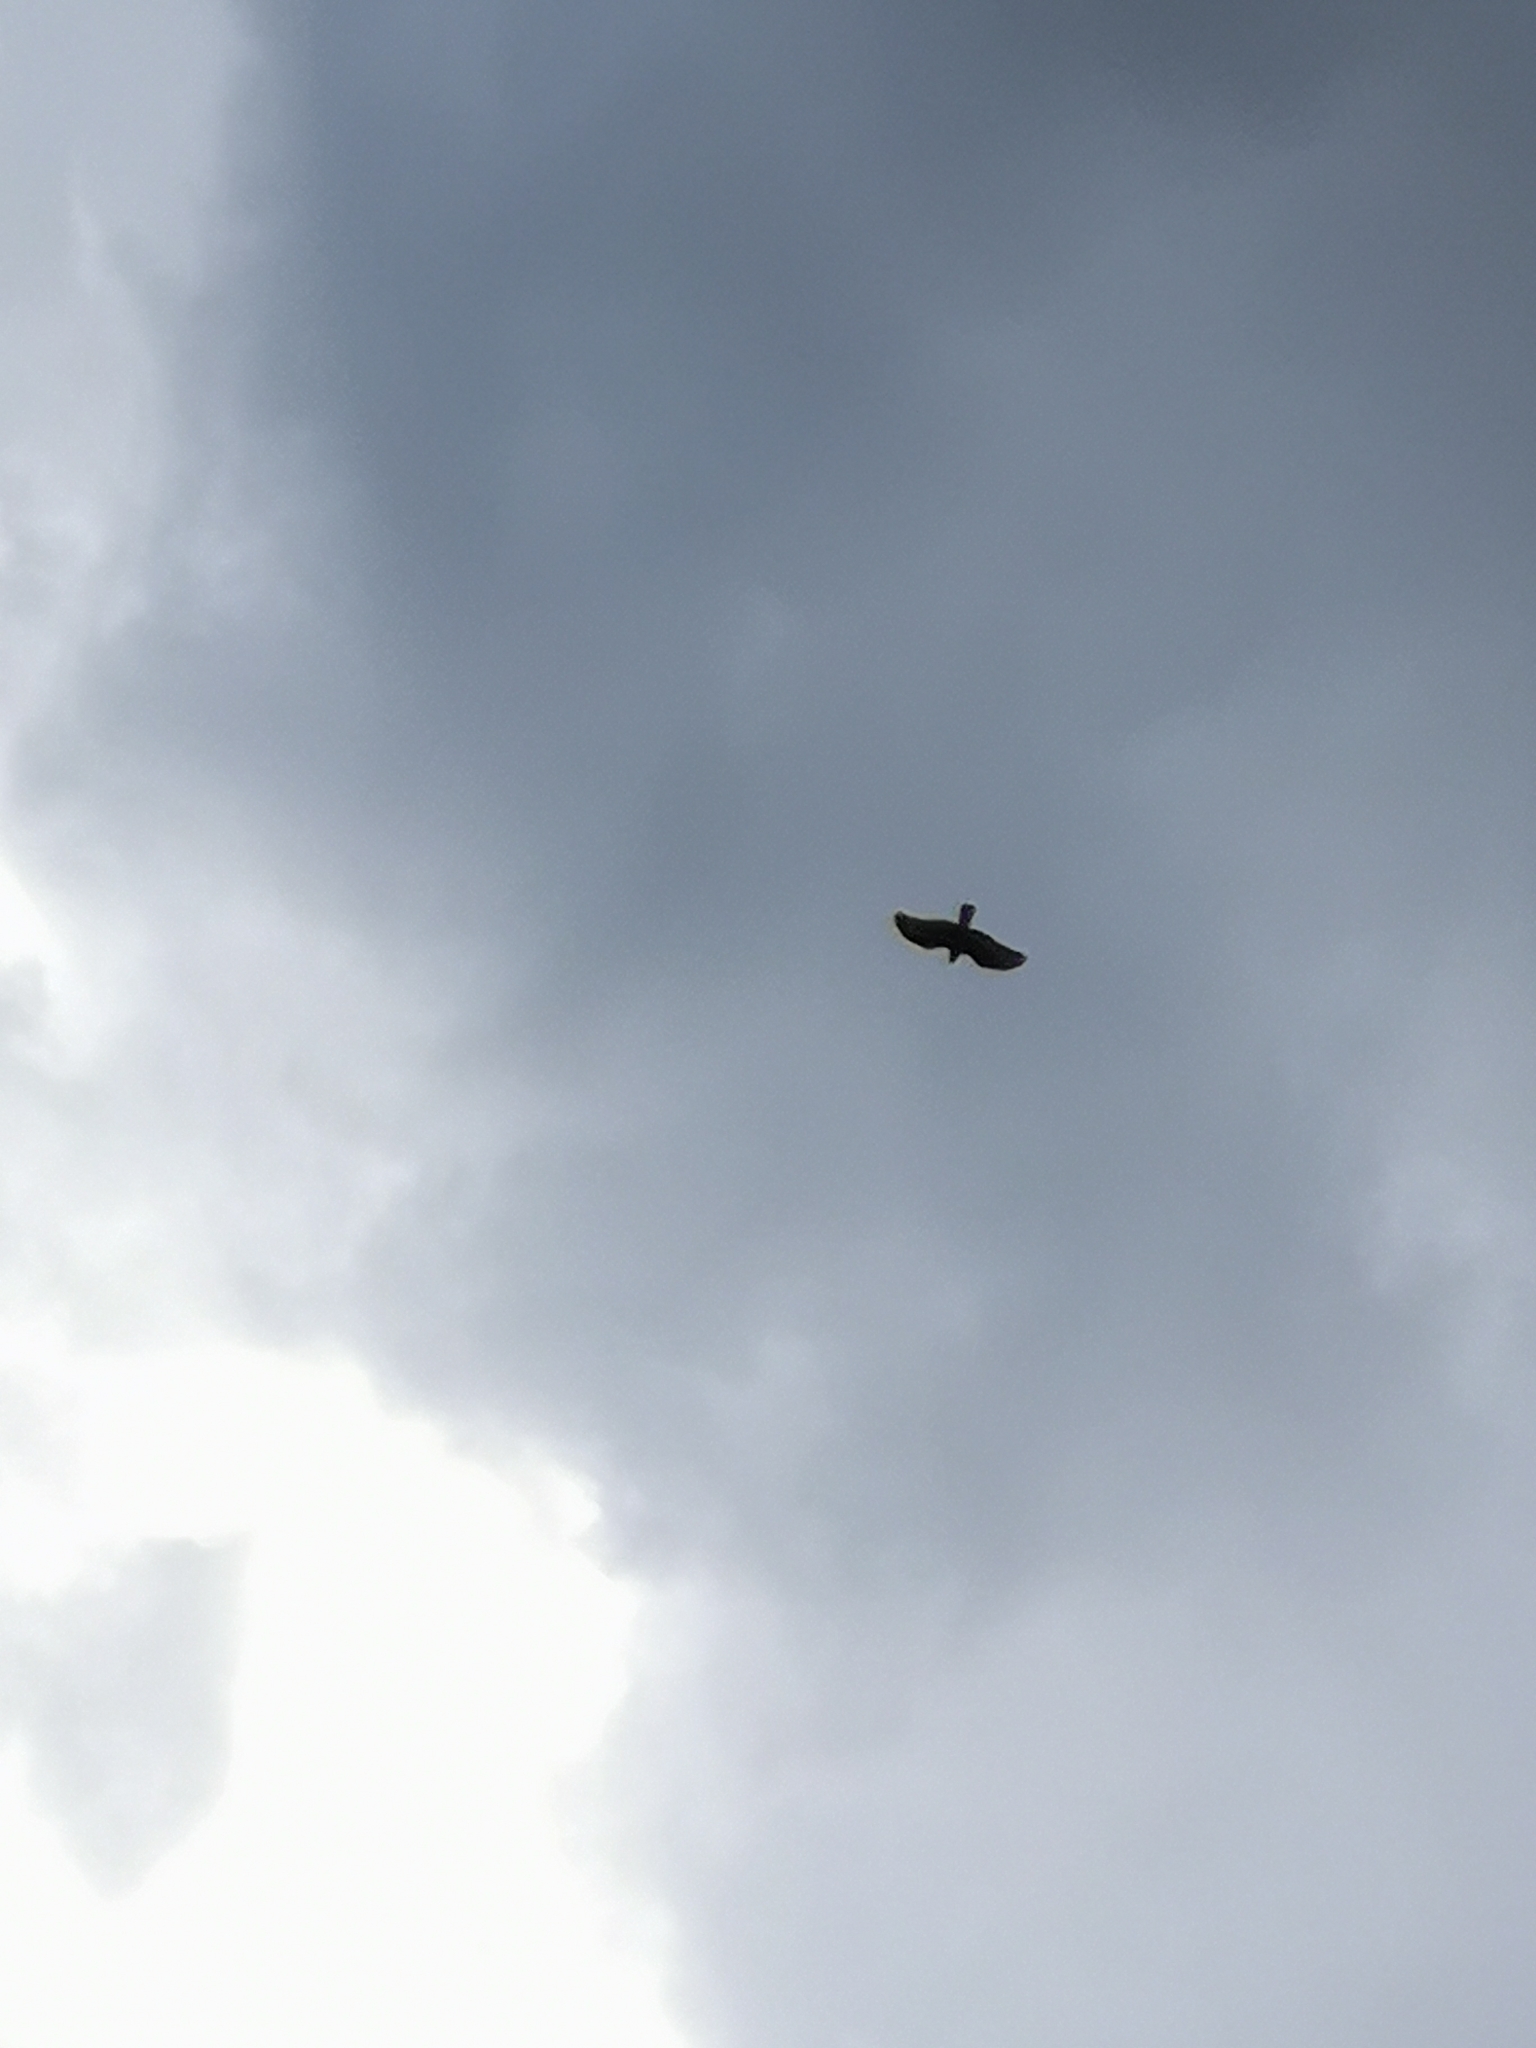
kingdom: Animalia
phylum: Chordata
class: Aves
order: Accipitriformes
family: Accipitridae
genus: Buteo
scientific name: Buteo buteo
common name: Common buzzard
